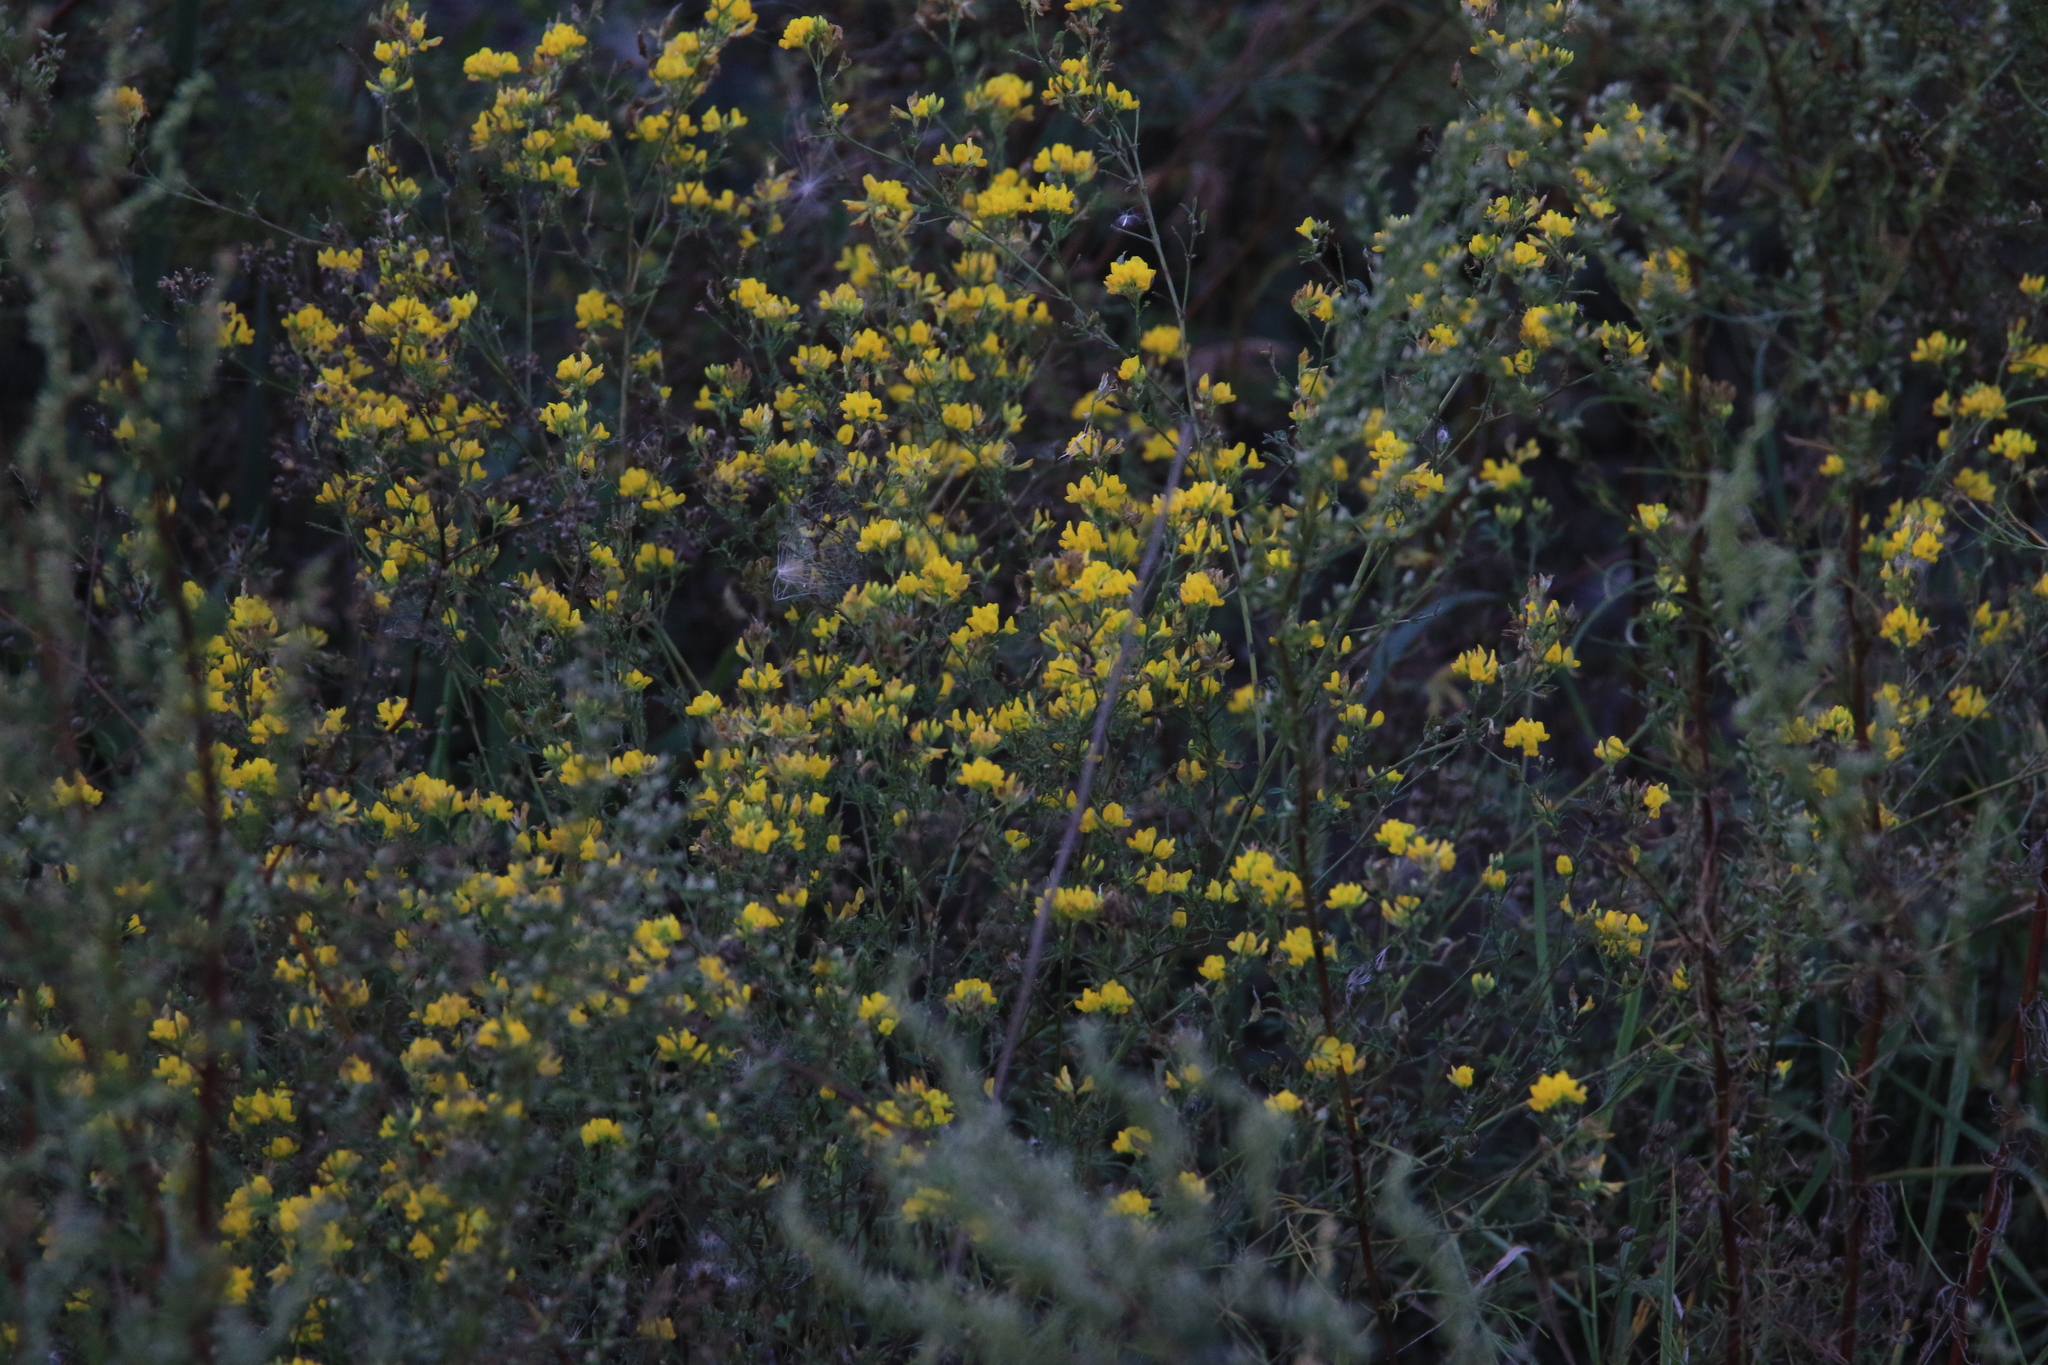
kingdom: Plantae
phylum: Tracheophyta
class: Magnoliopsida
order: Fabales
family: Fabaceae
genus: Medicago
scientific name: Medicago falcata
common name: Sickle medick
